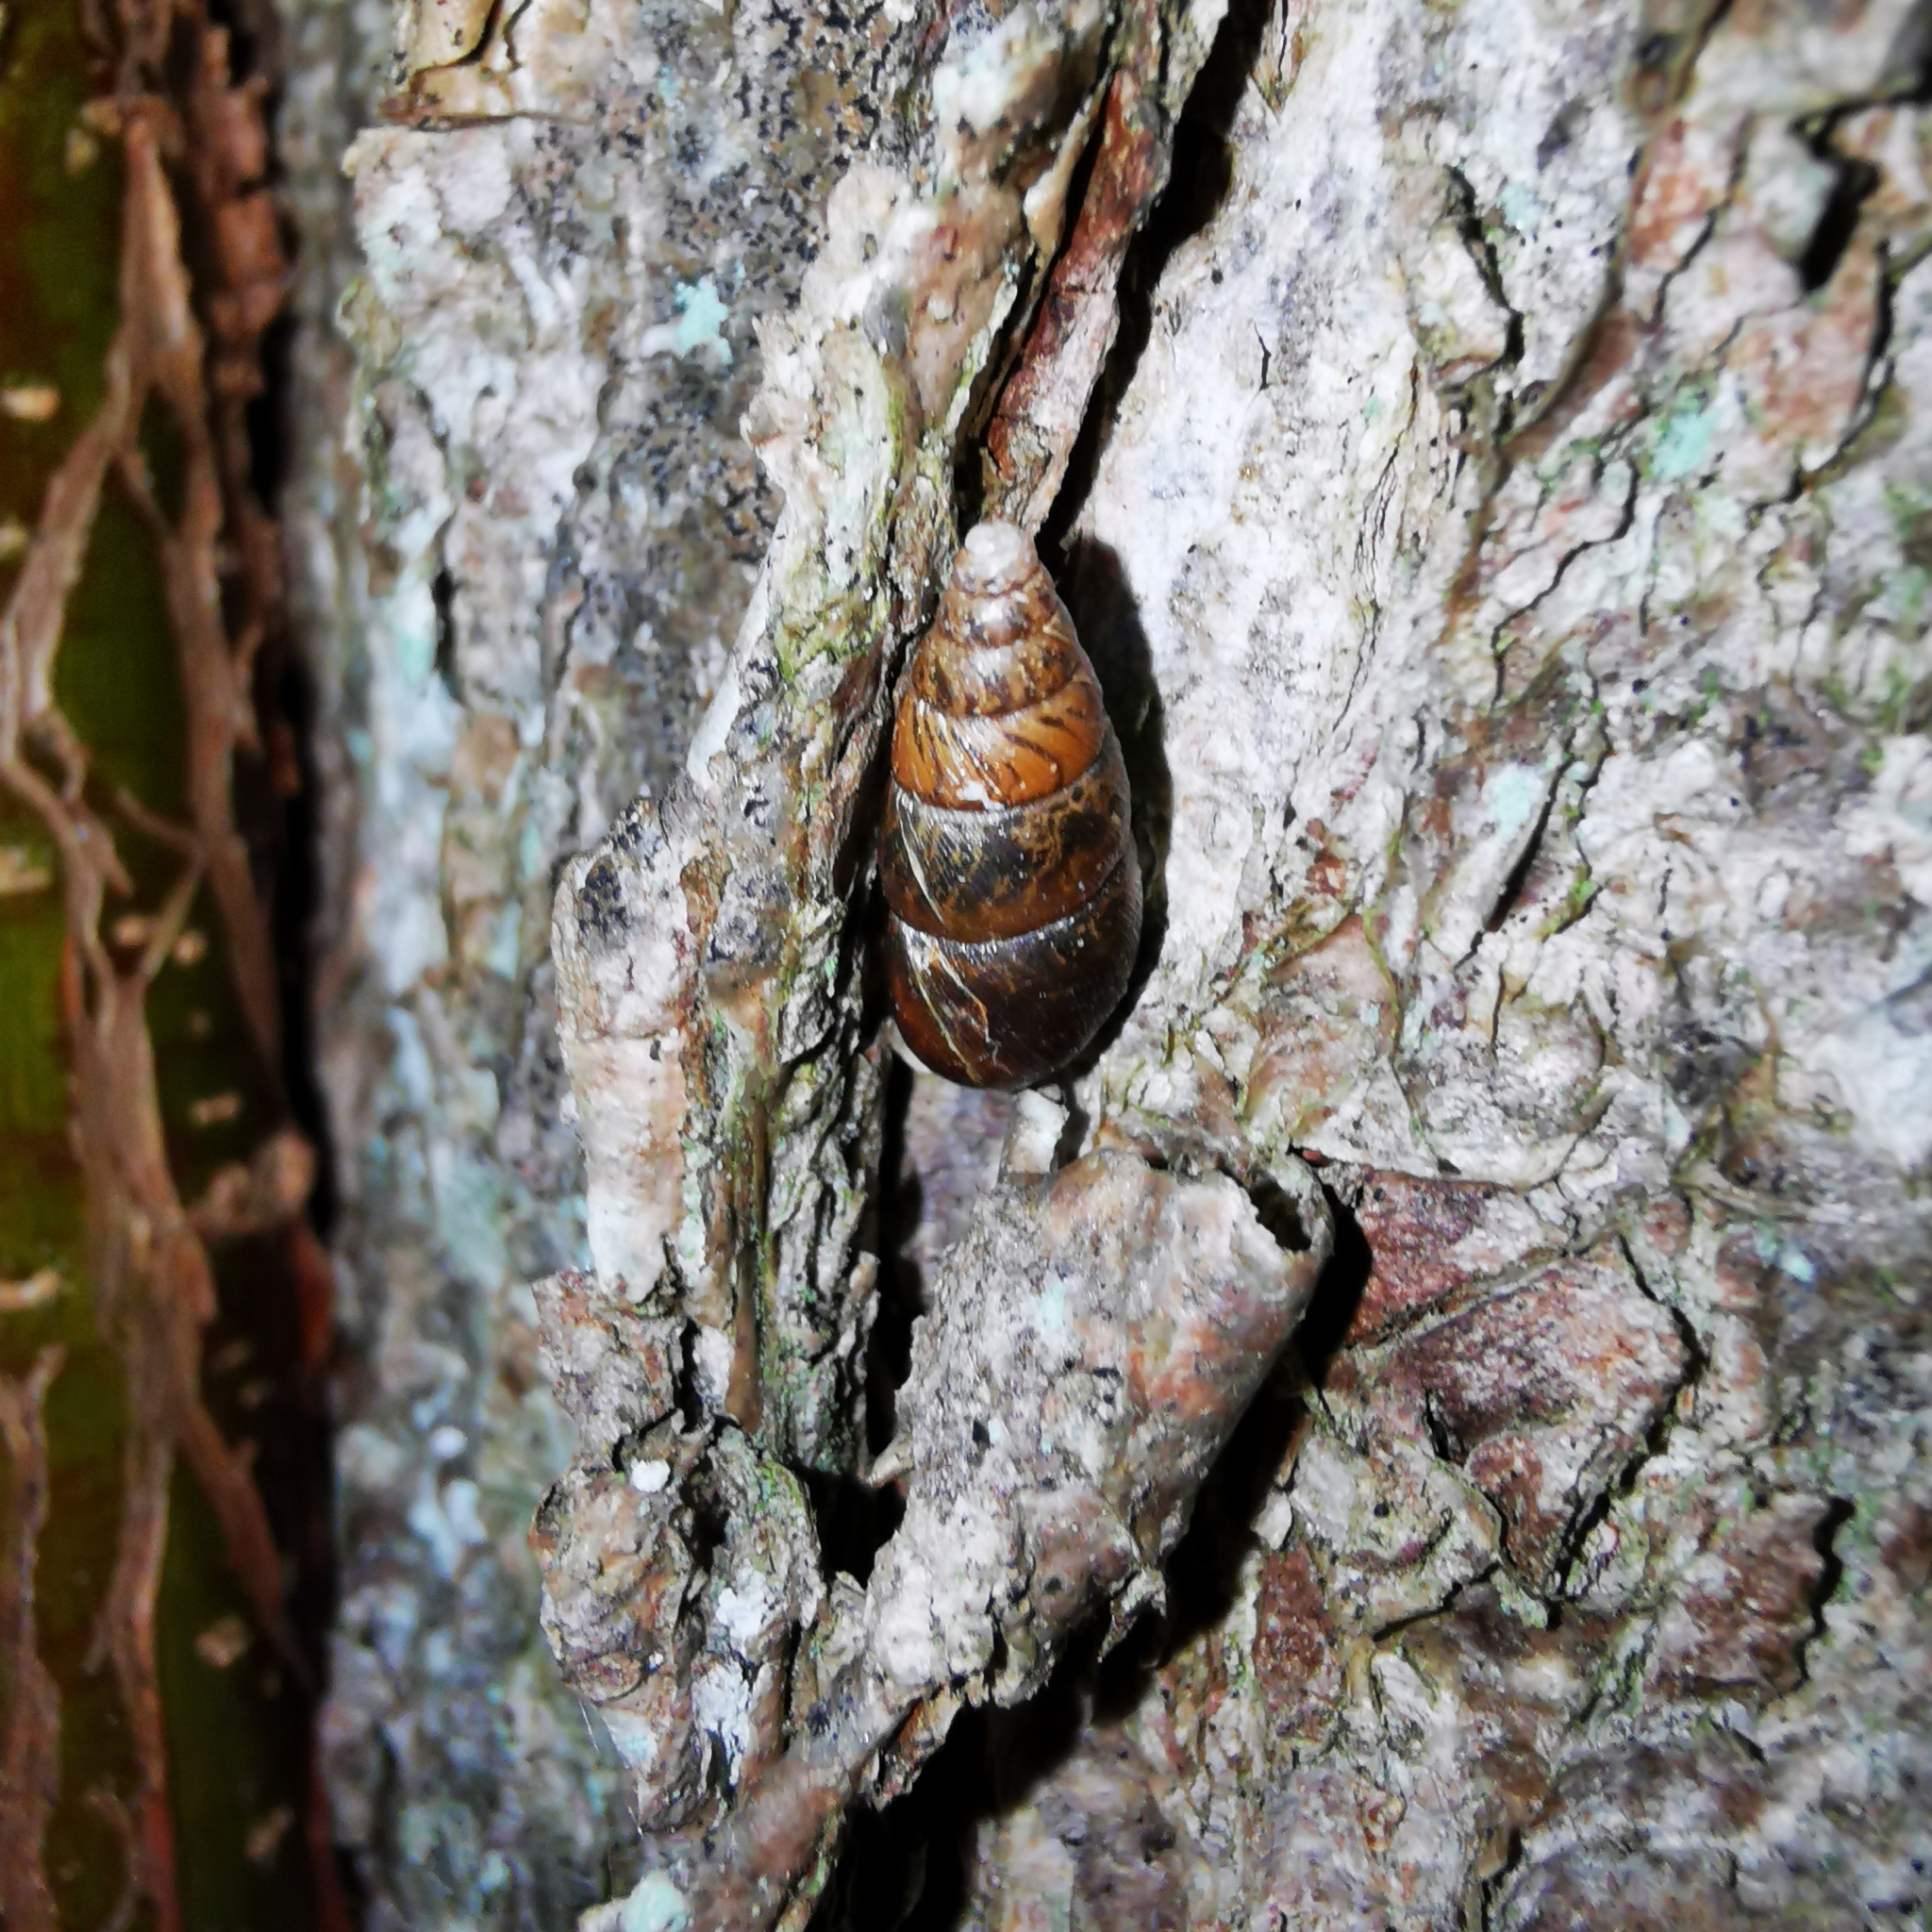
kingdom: Animalia
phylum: Mollusca
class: Gastropoda
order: Stylommatophora
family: Enidae
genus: Ena
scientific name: Ena montana
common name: Mountain bulin
